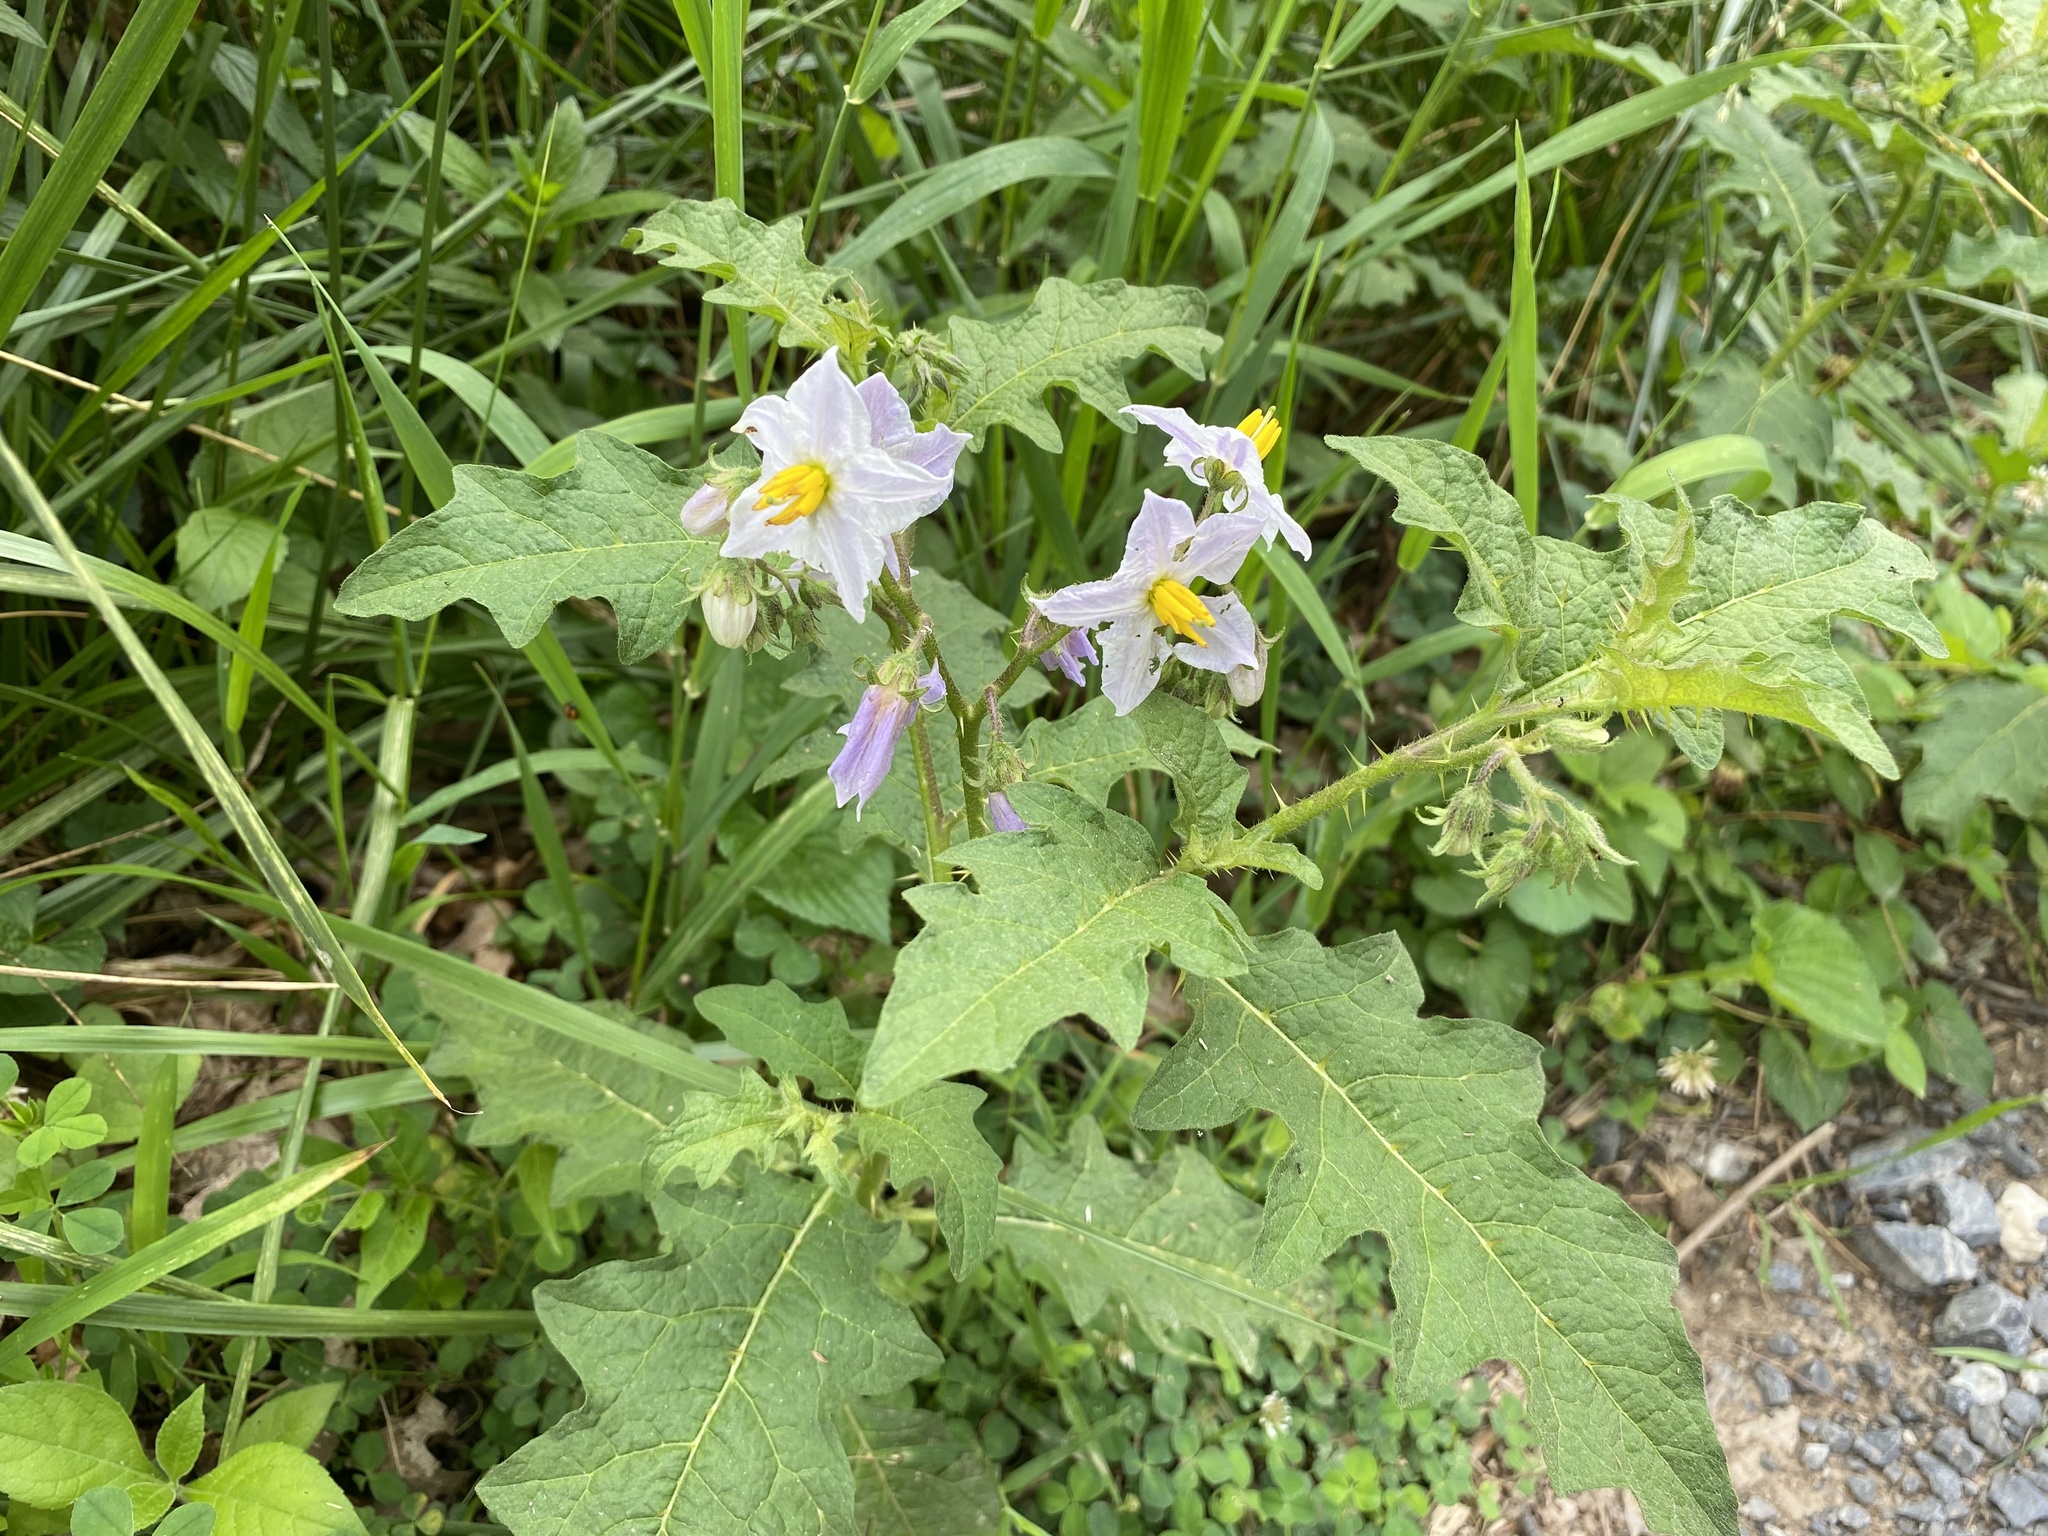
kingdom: Plantae
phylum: Tracheophyta
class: Magnoliopsida
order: Solanales
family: Solanaceae
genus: Solanum
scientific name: Solanum carolinense
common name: Horse-nettle
